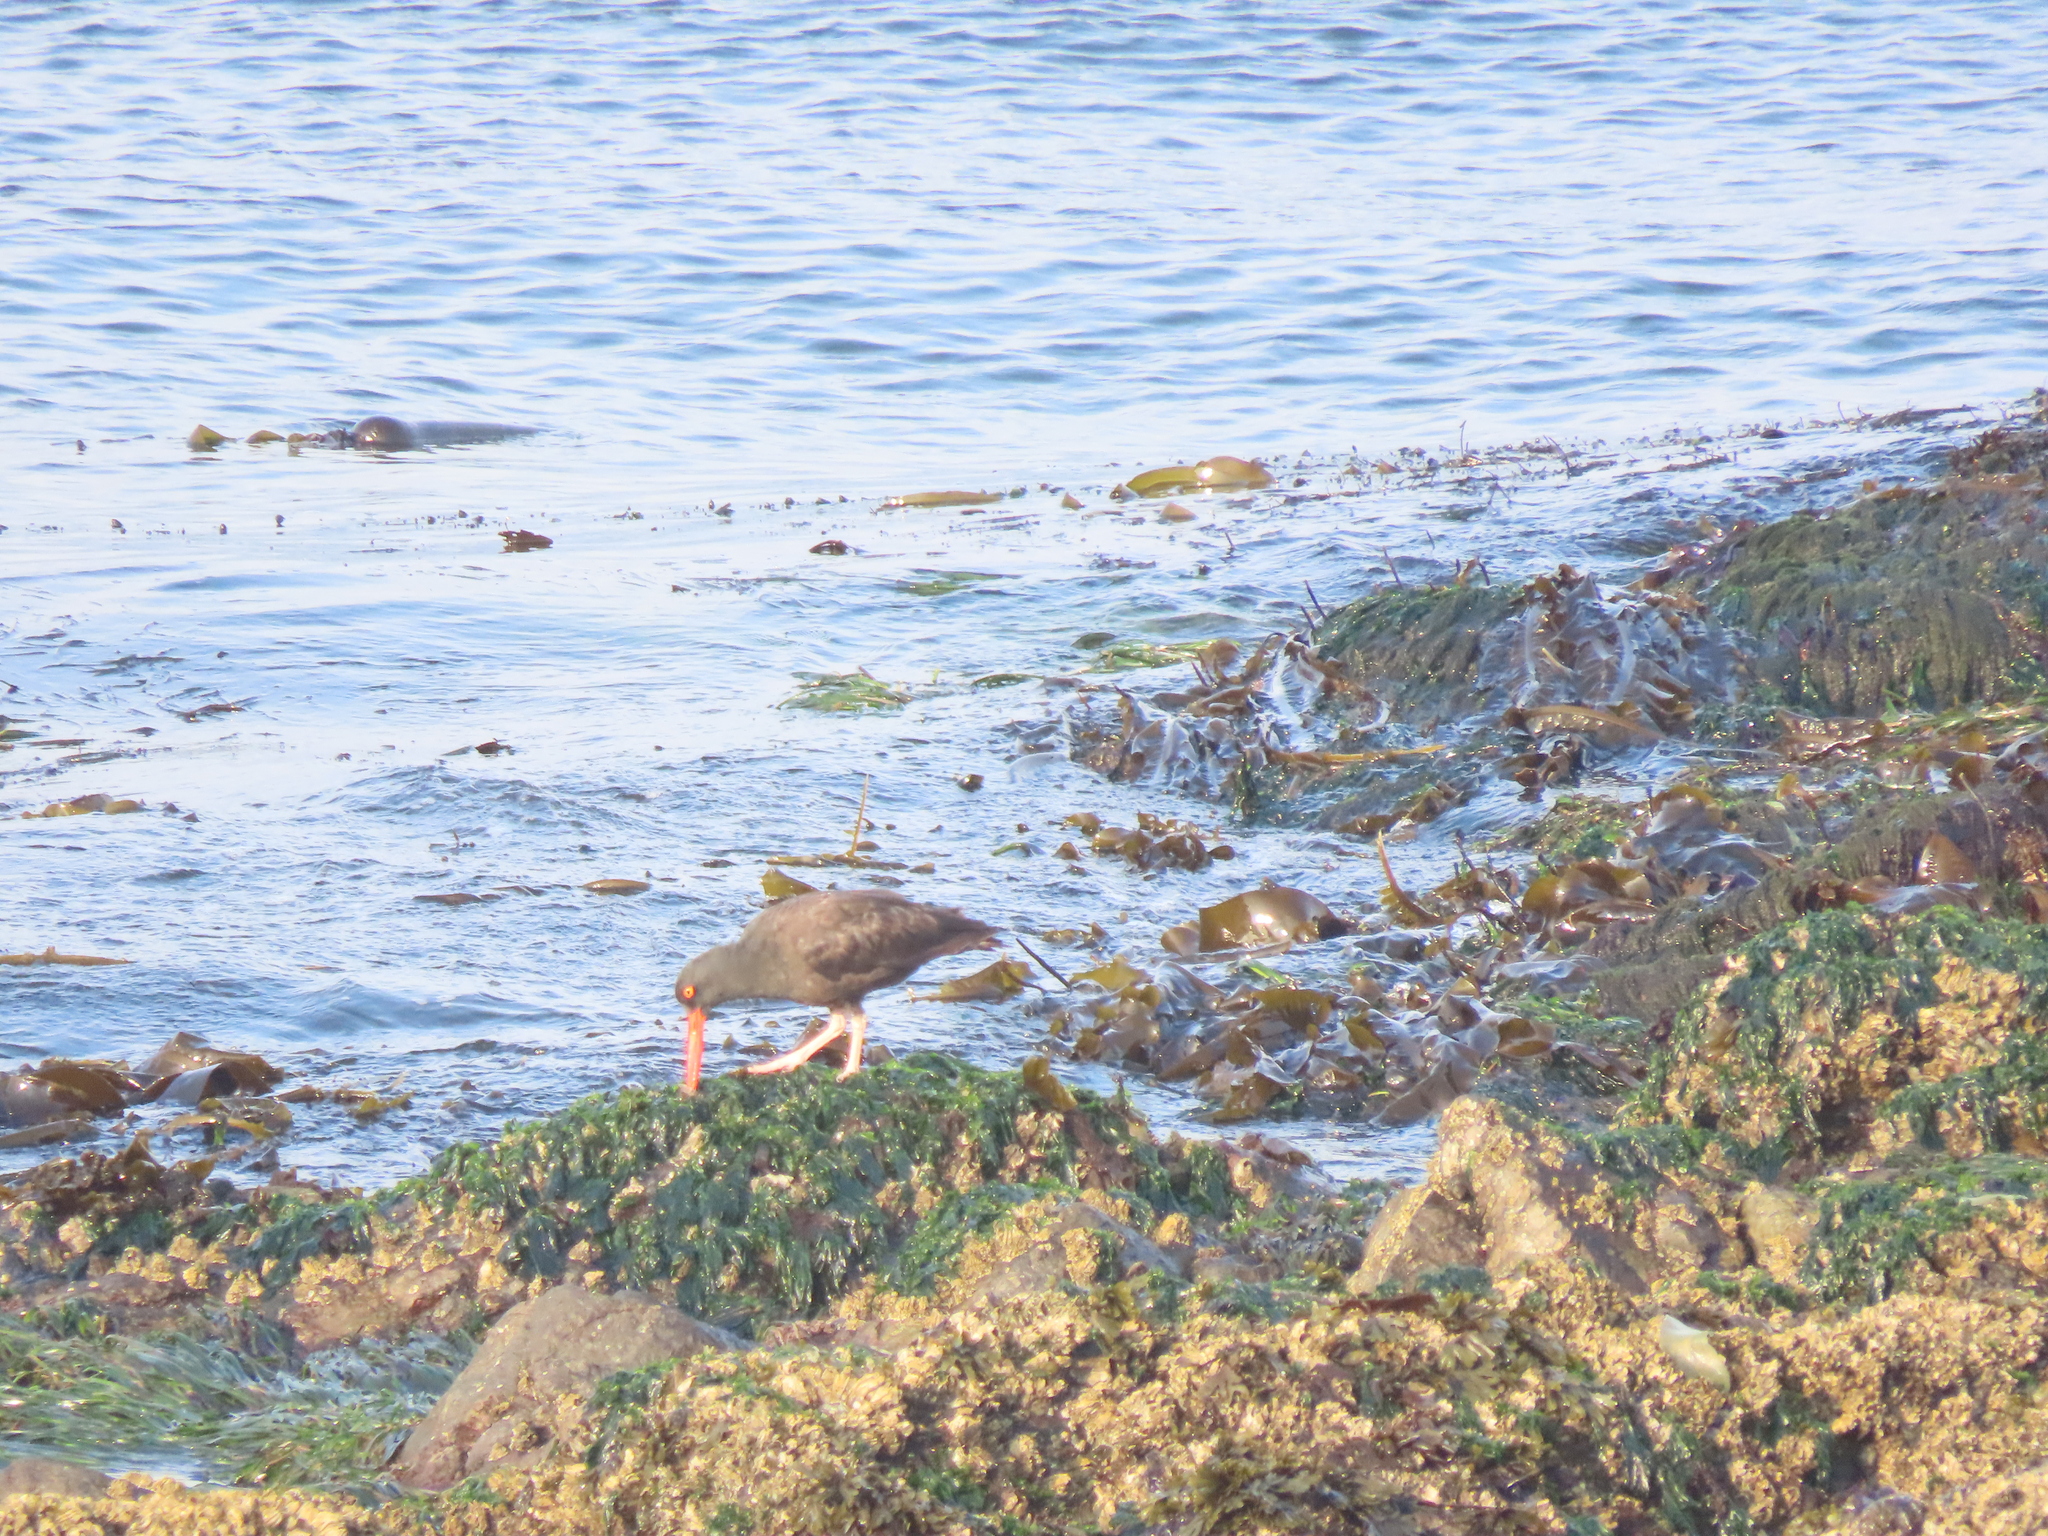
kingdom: Animalia
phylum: Chordata
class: Aves
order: Charadriiformes
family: Haematopodidae
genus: Haematopus
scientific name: Haematopus bachmani
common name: Black oystercatcher
